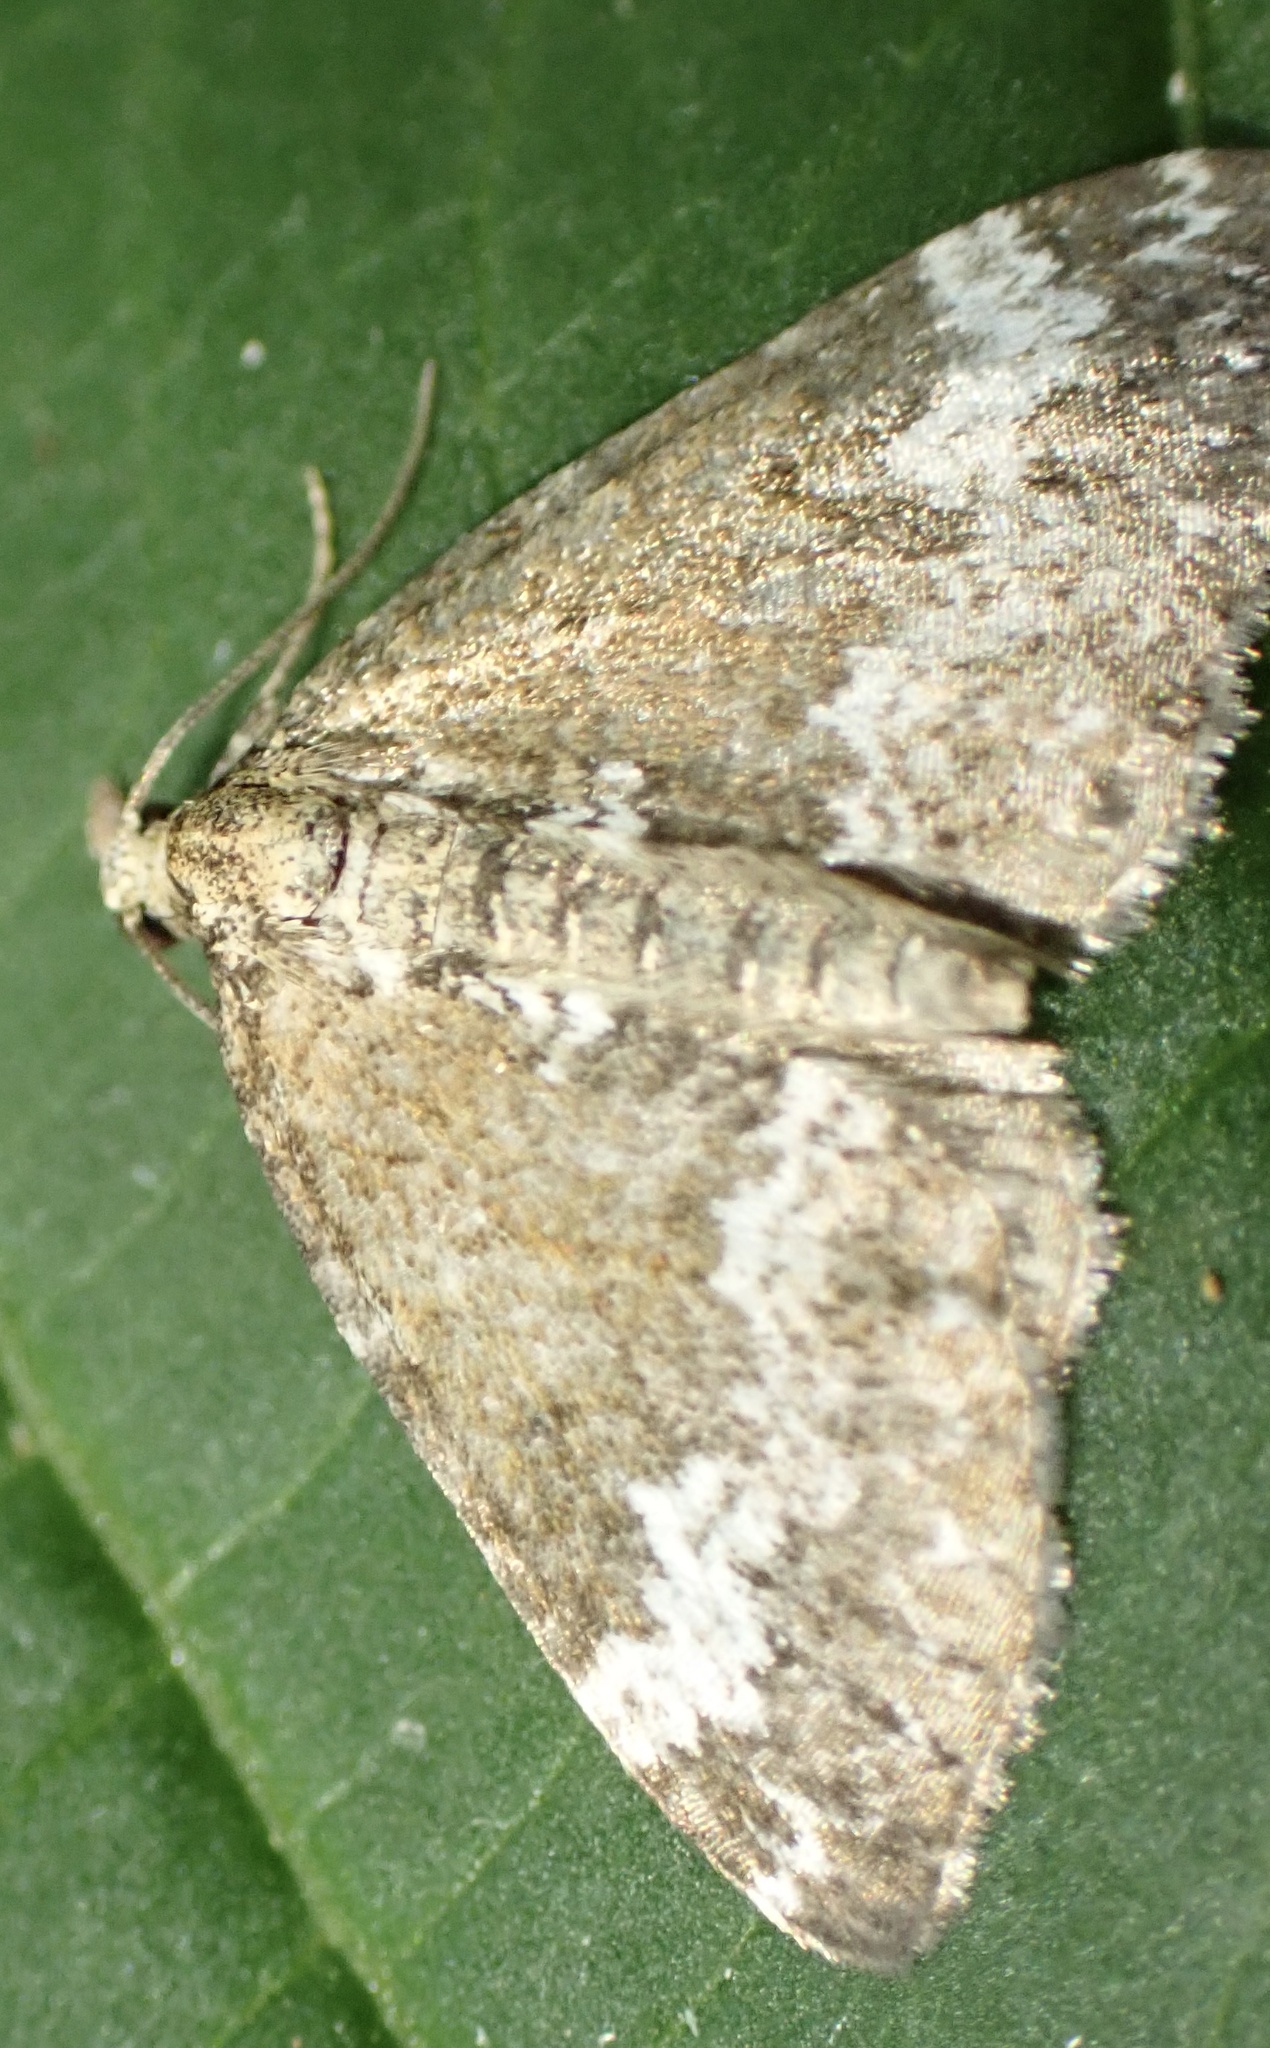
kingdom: Animalia
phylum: Arthropoda
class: Insecta
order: Lepidoptera
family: Geometridae
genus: Perizoma
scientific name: Perizoma alchemillata
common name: Small rivulet
